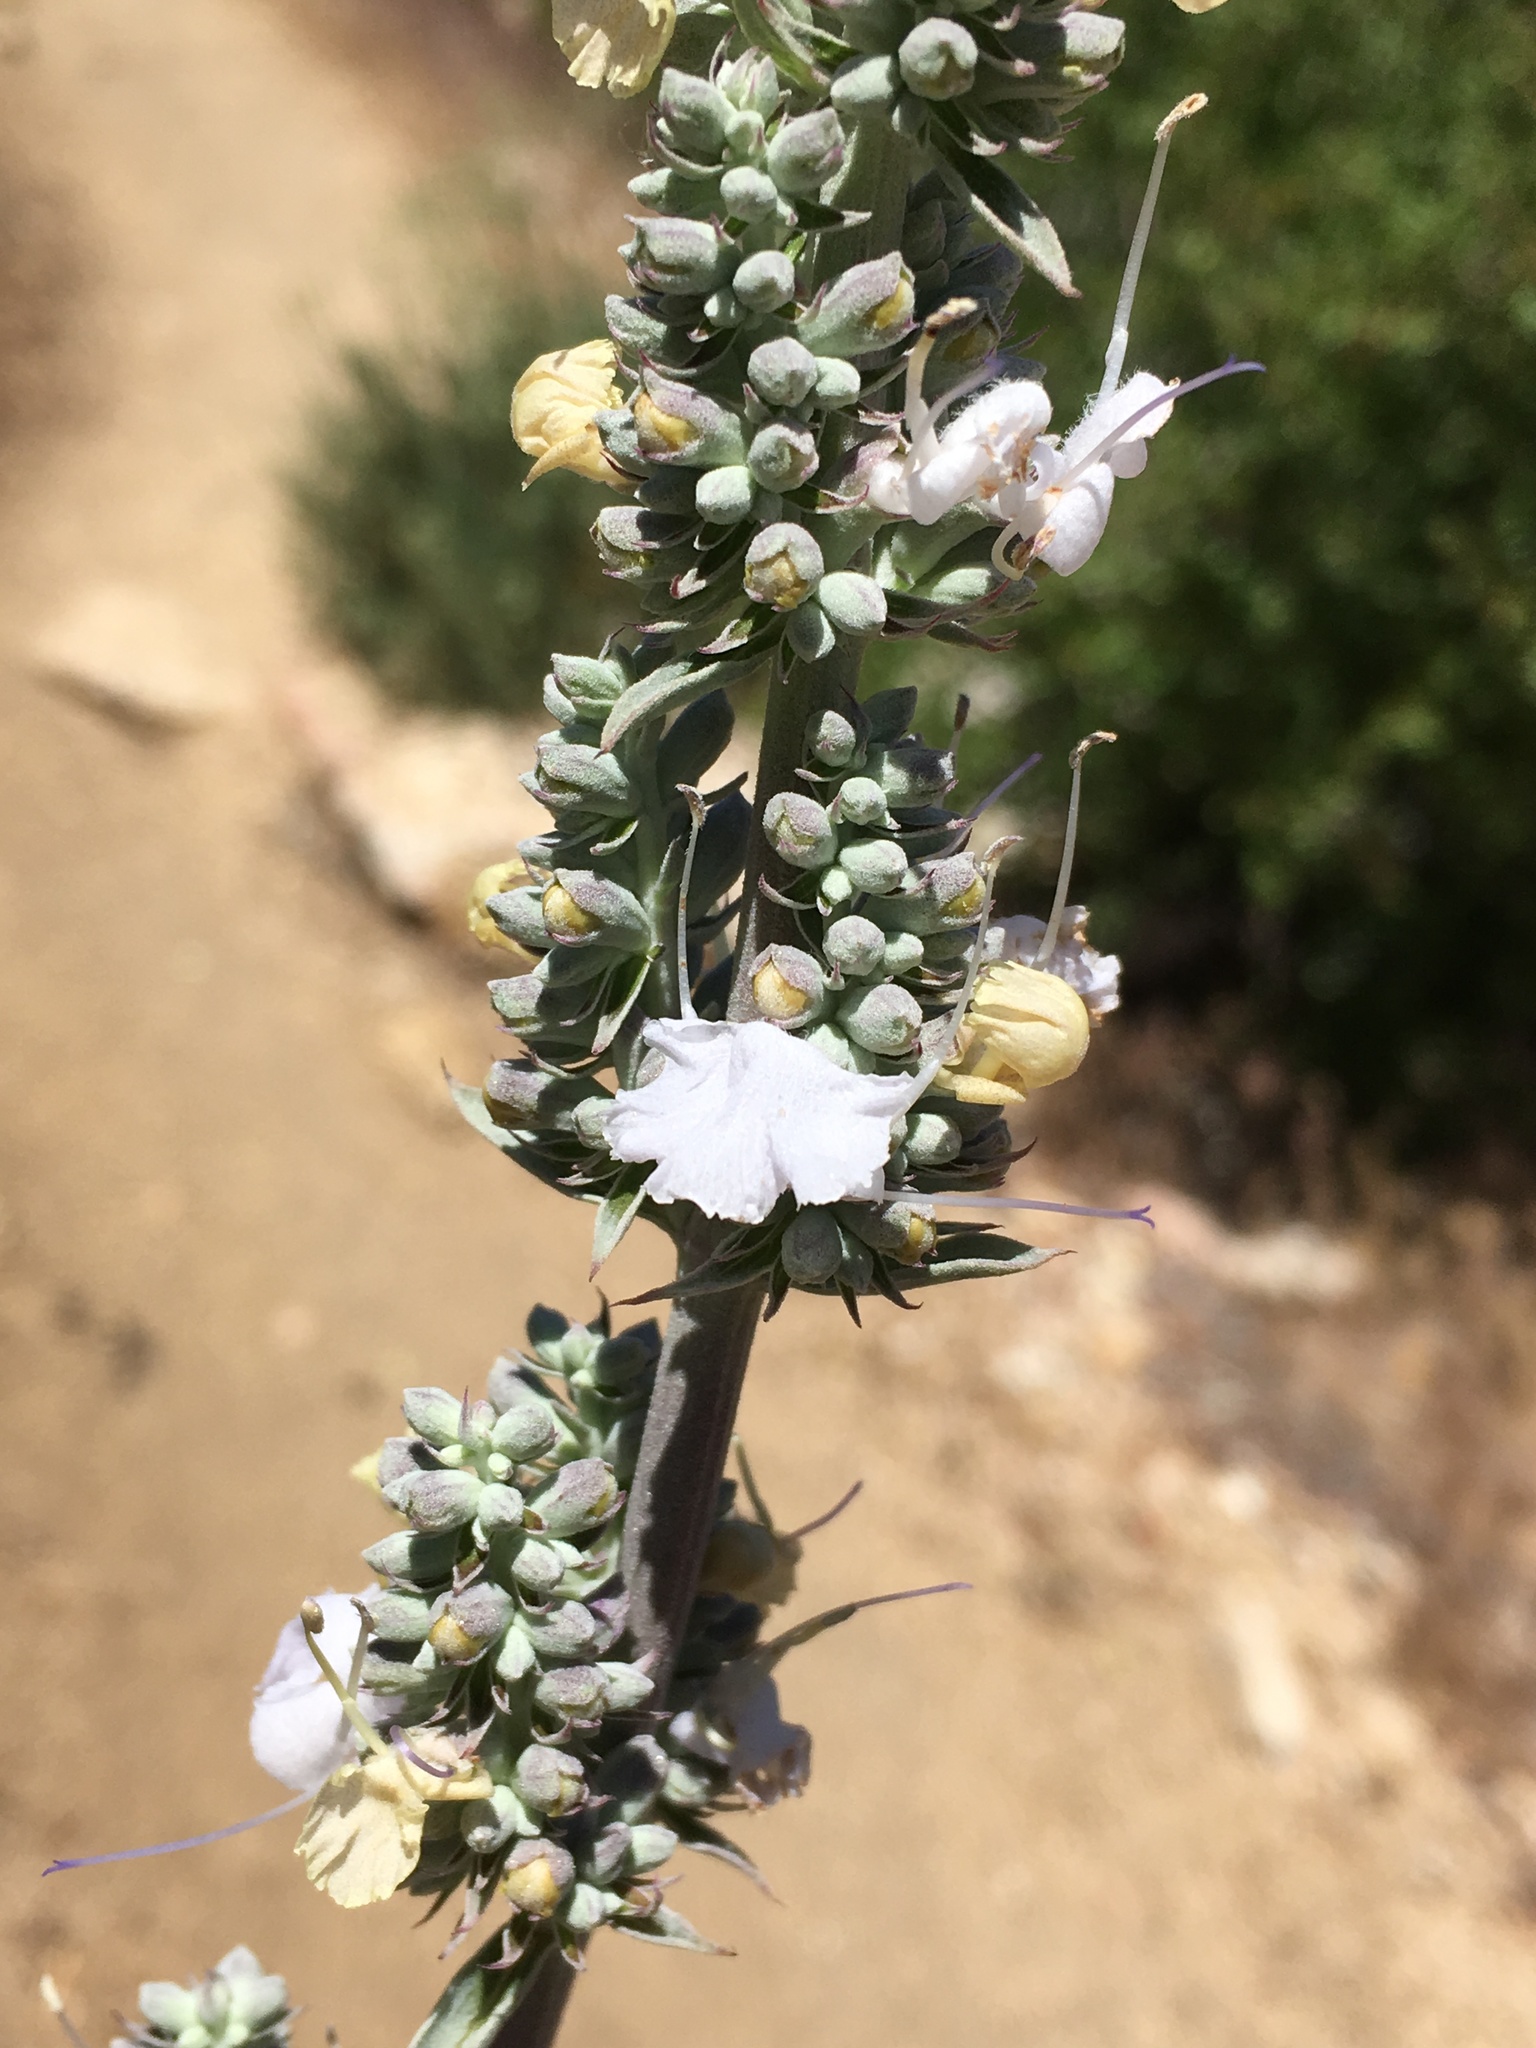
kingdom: Plantae
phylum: Tracheophyta
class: Magnoliopsida
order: Lamiales
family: Lamiaceae
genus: Salvia
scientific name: Salvia apiana
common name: White sage
